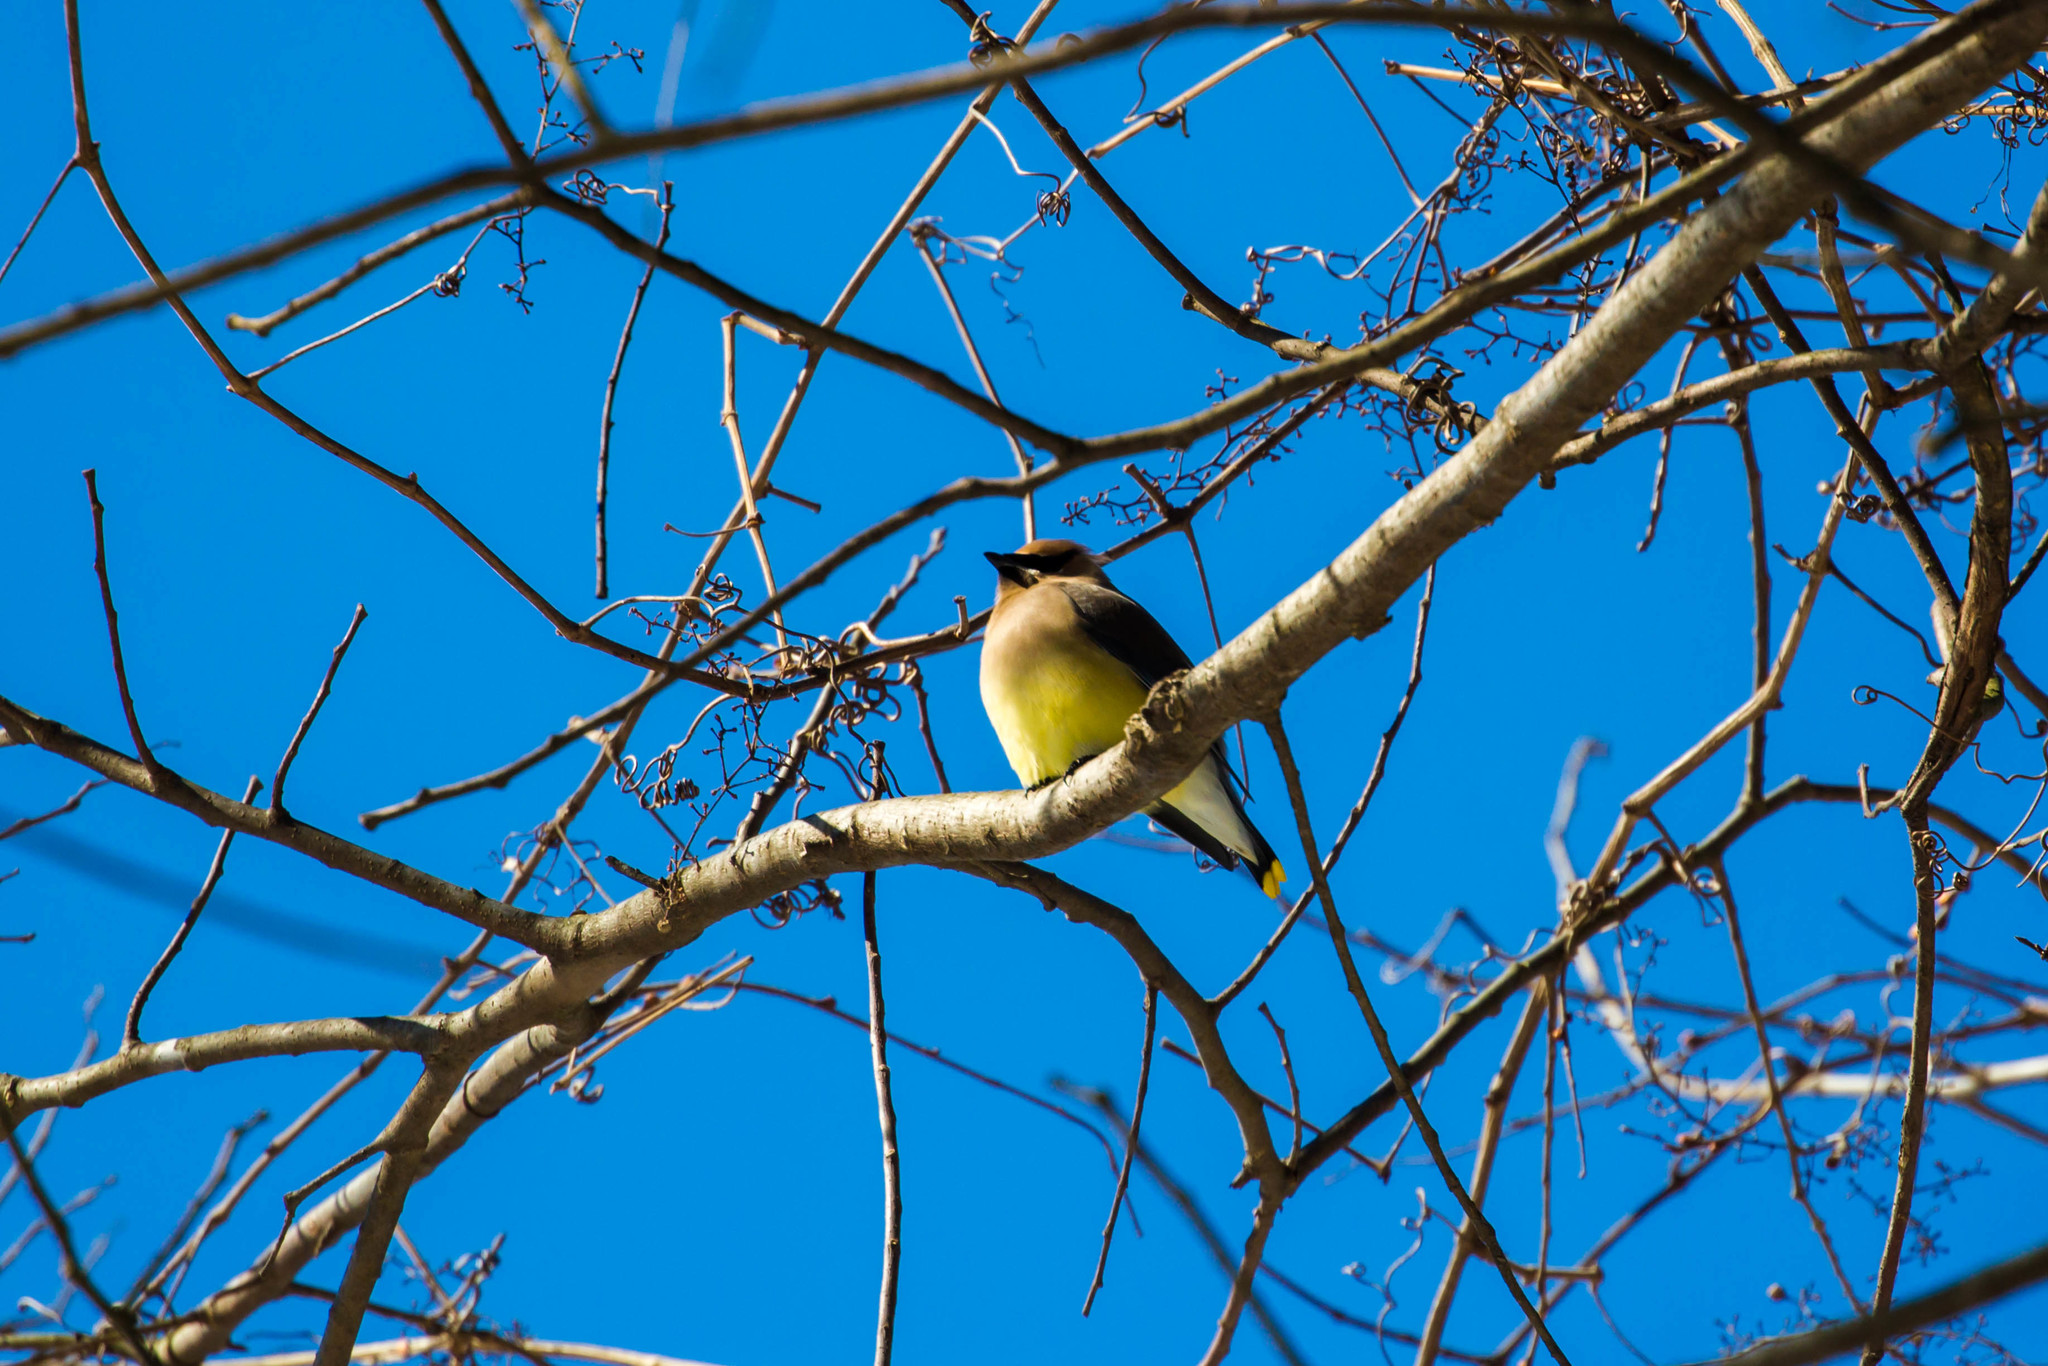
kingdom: Animalia
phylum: Chordata
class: Aves
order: Passeriformes
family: Bombycillidae
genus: Bombycilla
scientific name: Bombycilla cedrorum
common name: Cedar waxwing
